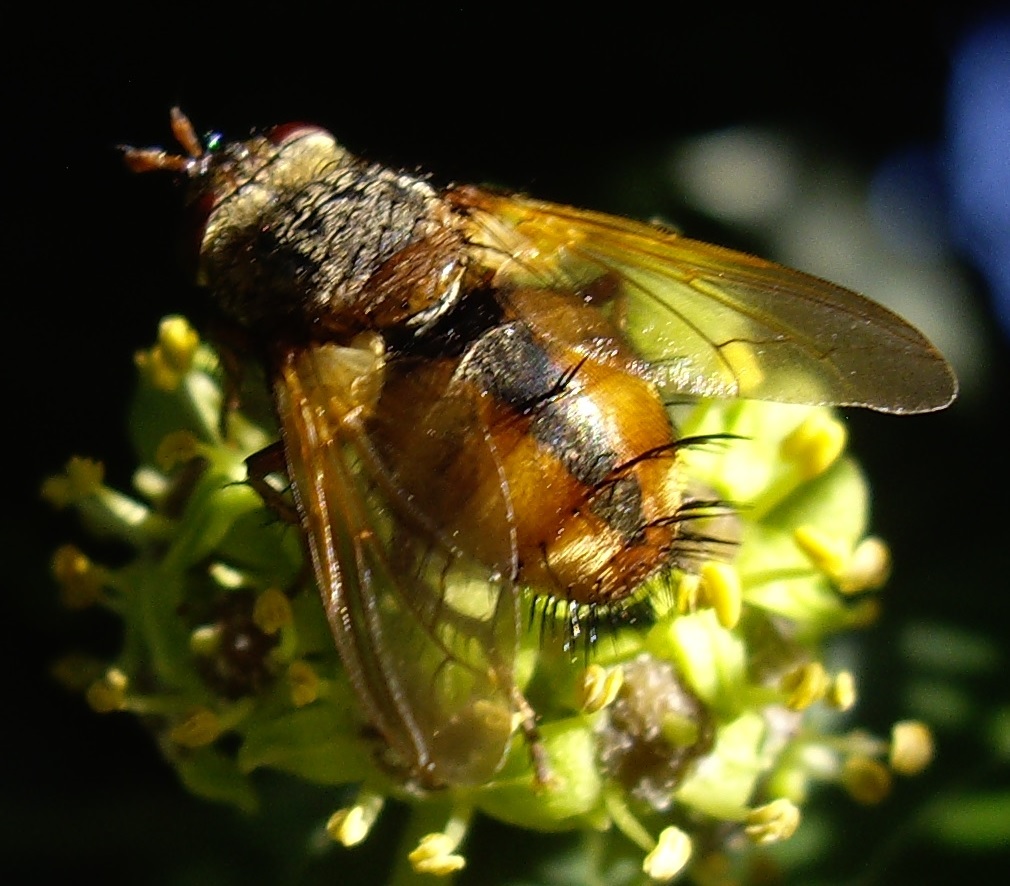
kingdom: Animalia
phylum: Arthropoda
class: Insecta
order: Diptera
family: Tachinidae
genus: Tachina
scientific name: Tachina fera
